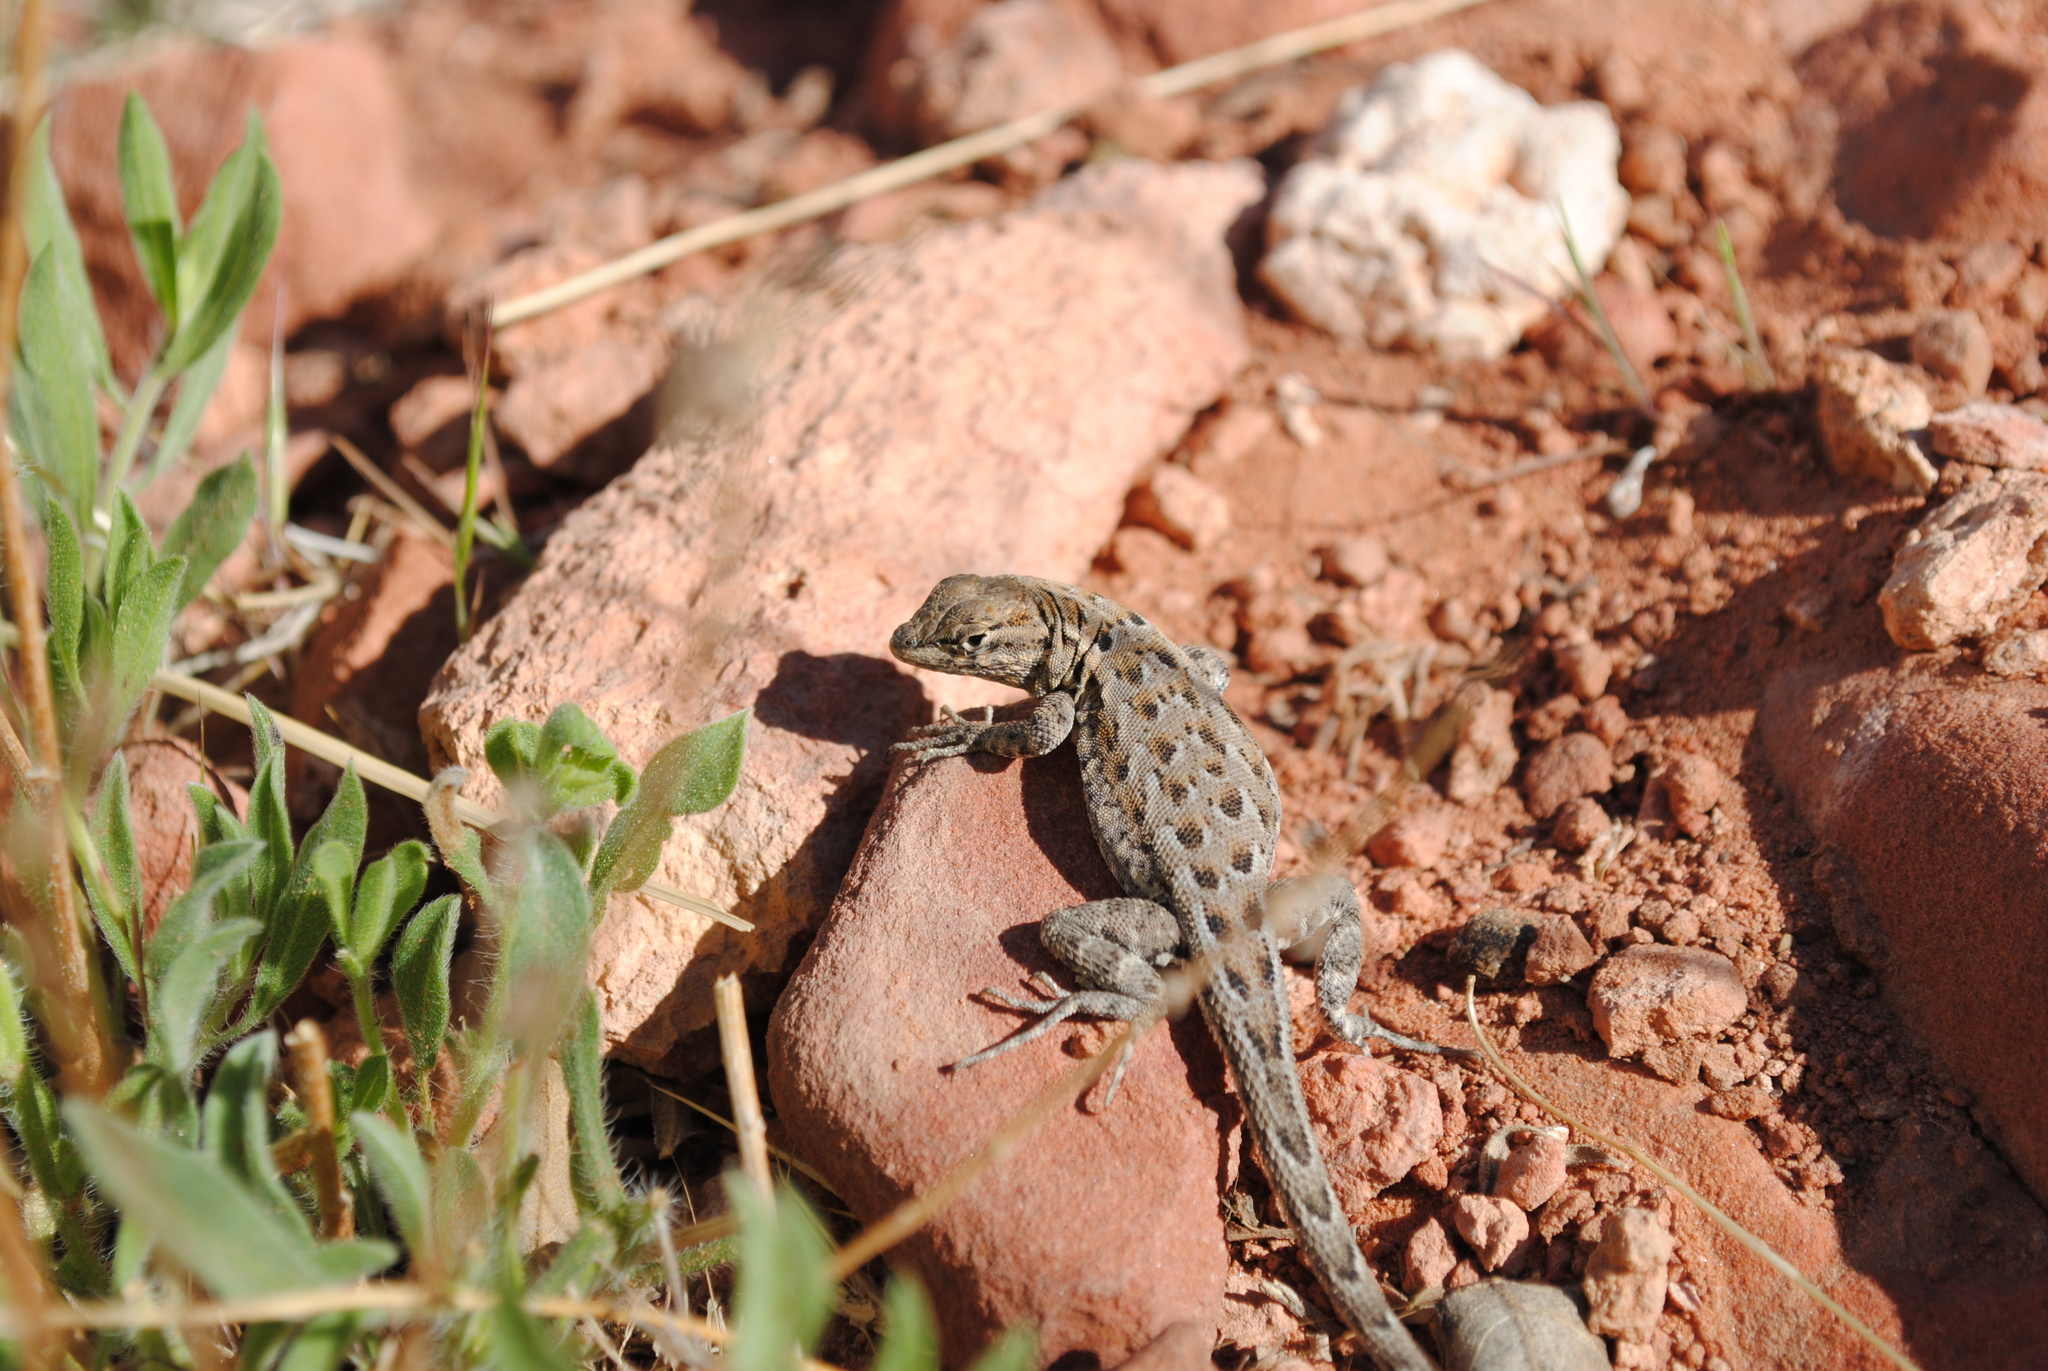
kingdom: Animalia
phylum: Chordata
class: Squamata
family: Phrynosomatidae
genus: Uta
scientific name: Uta stansburiana
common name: Side-blotched lizard
